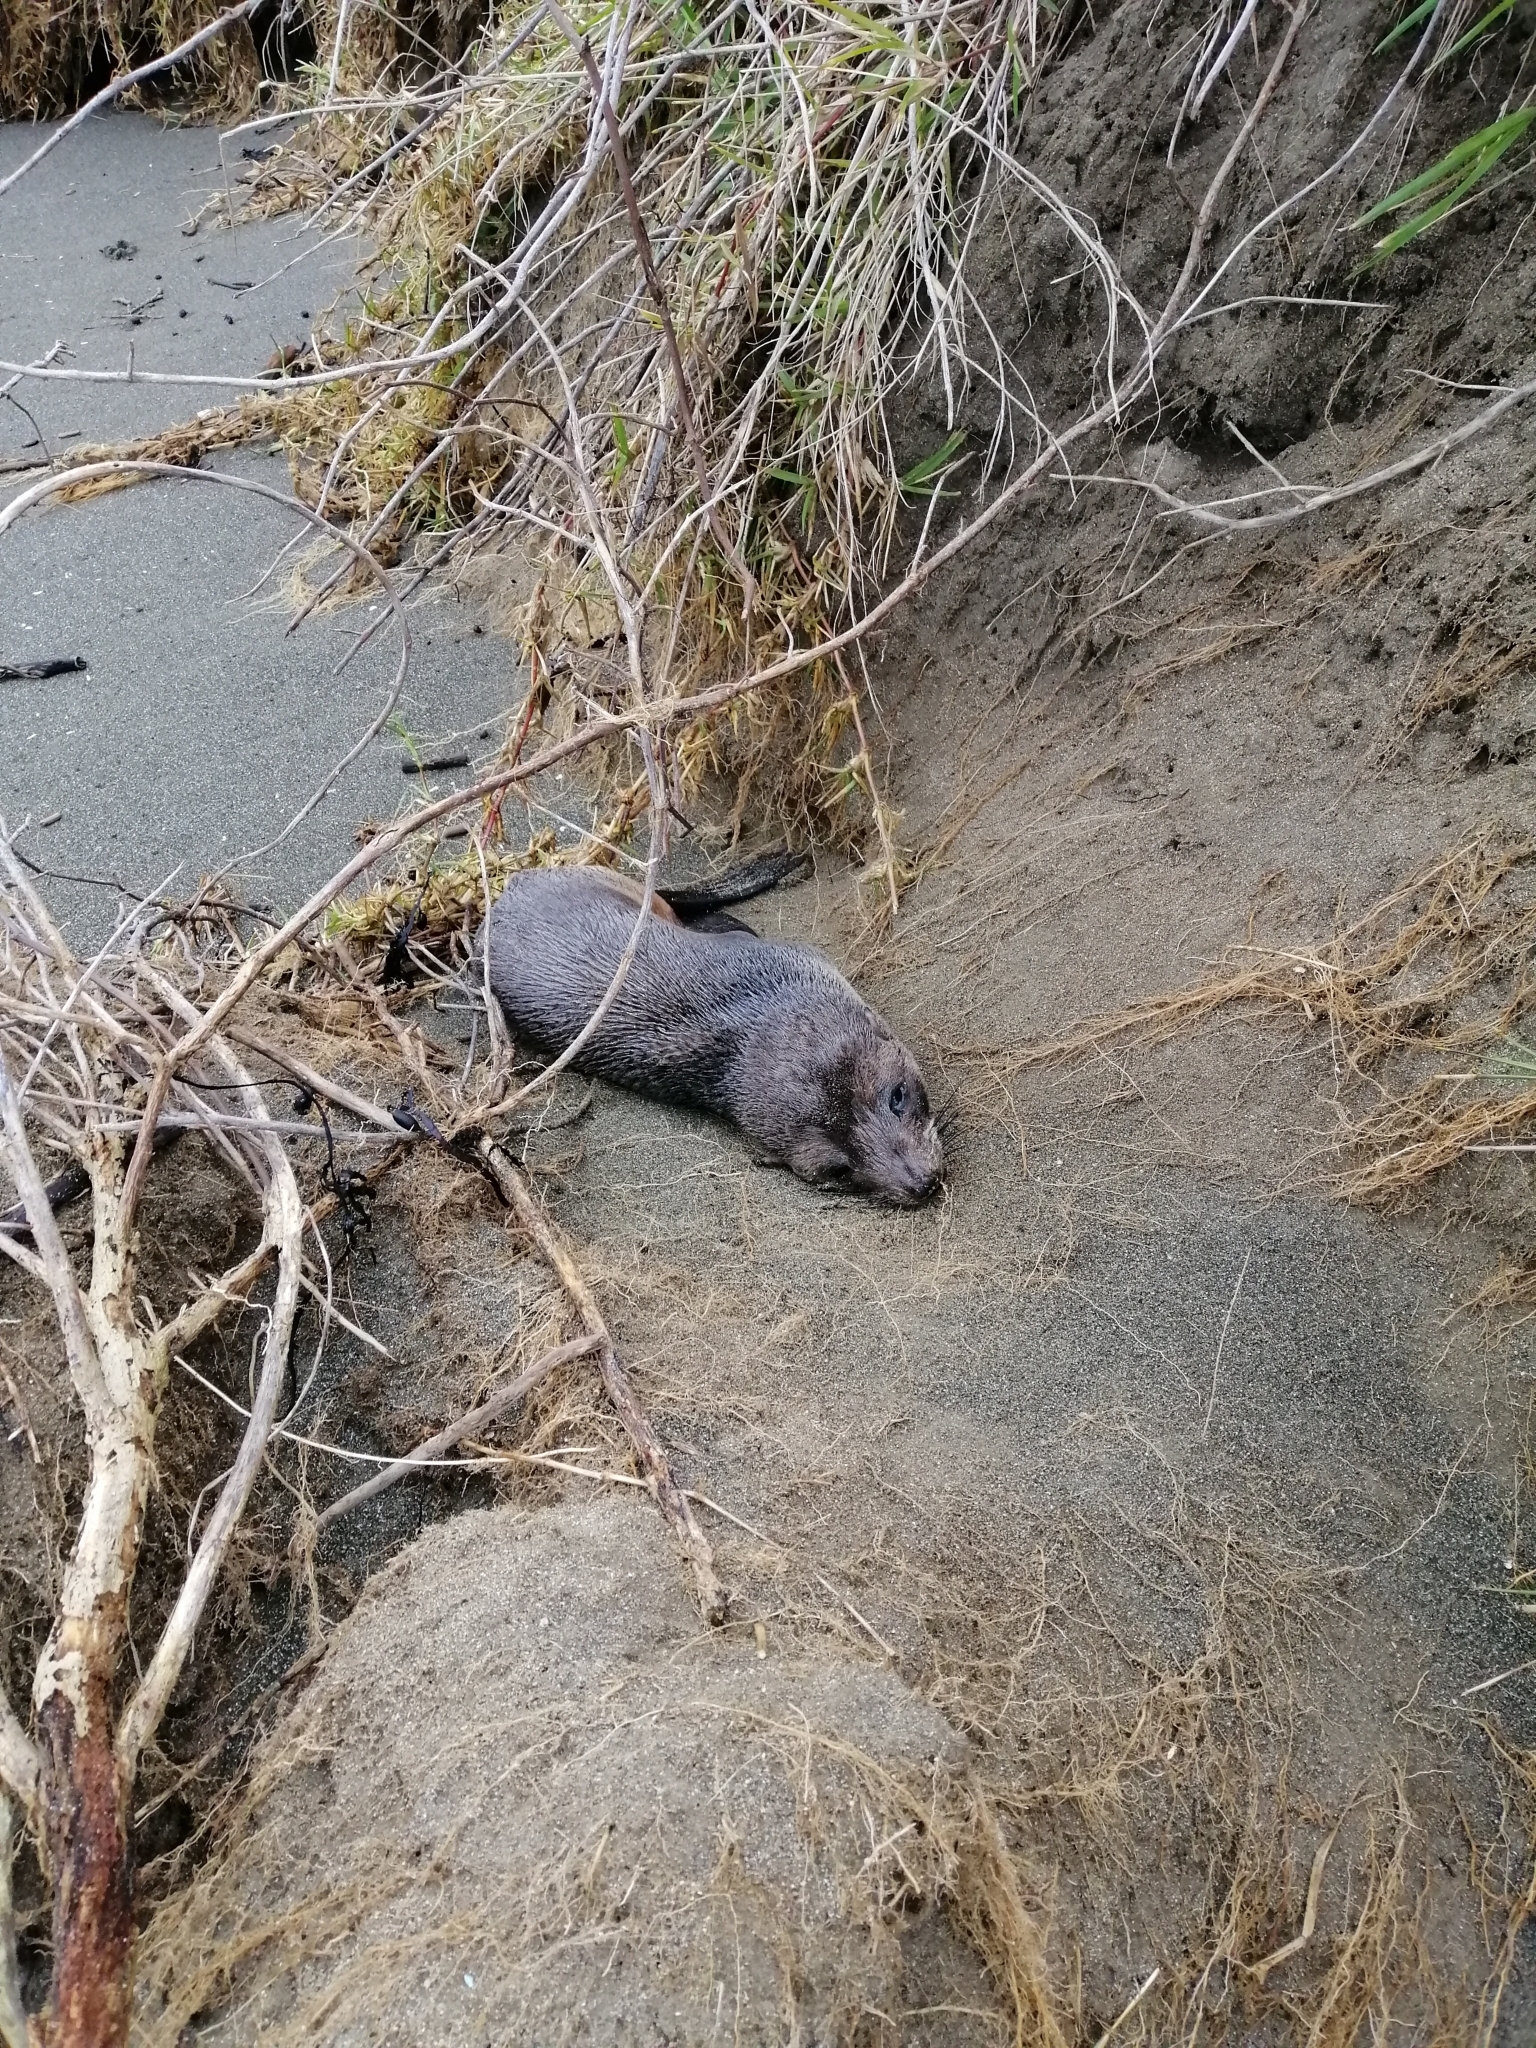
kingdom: Animalia
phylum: Chordata
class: Mammalia
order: Carnivora
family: Otariidae
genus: Arctocephalus
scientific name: Arctocephalus forsteri
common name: New zealand fur seal
